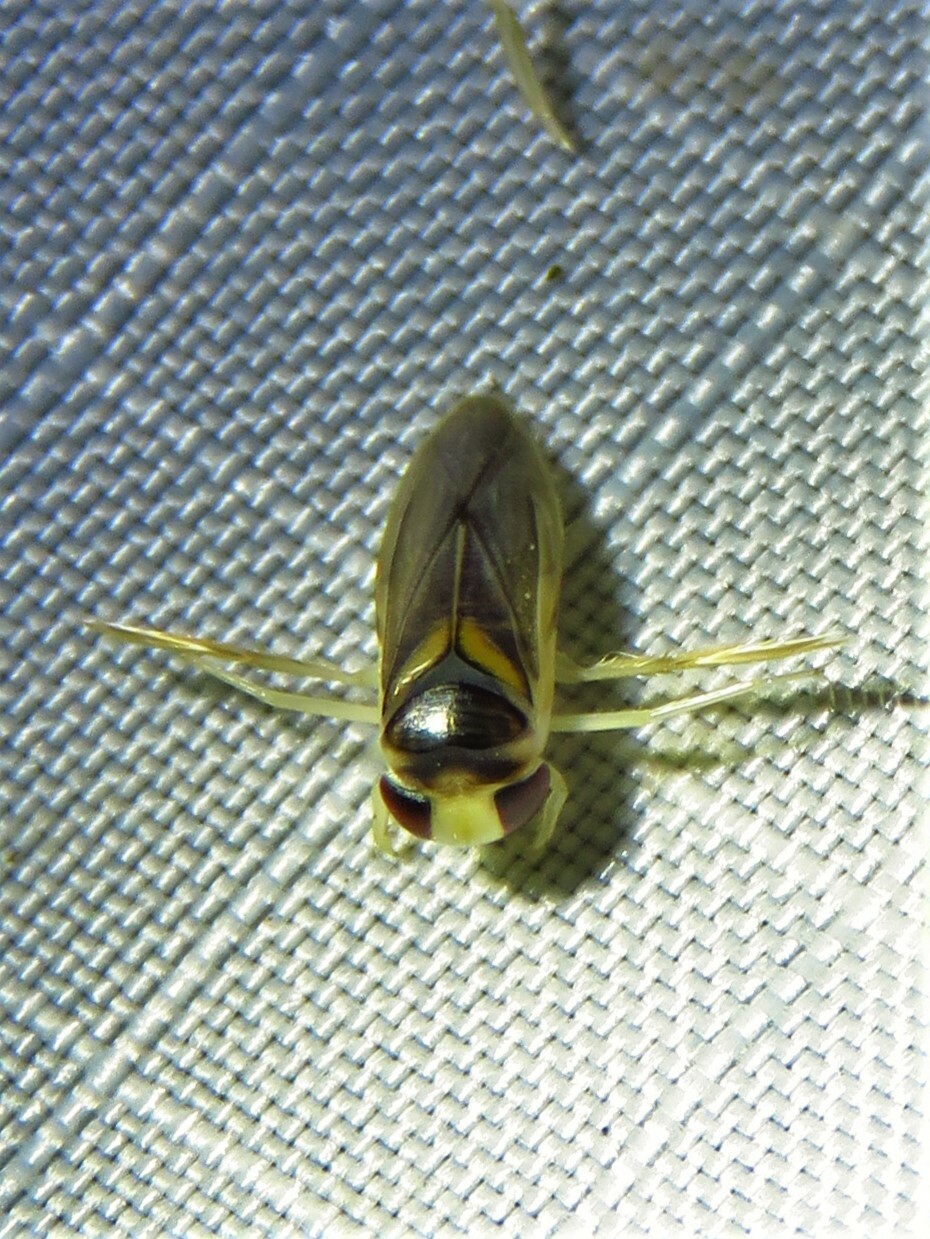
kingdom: Animalia
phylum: Arthropoda
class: Insecta
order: Hemiptera
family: Corixidae
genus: Ramphocorixa
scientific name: Ramphocorixa acuminata
